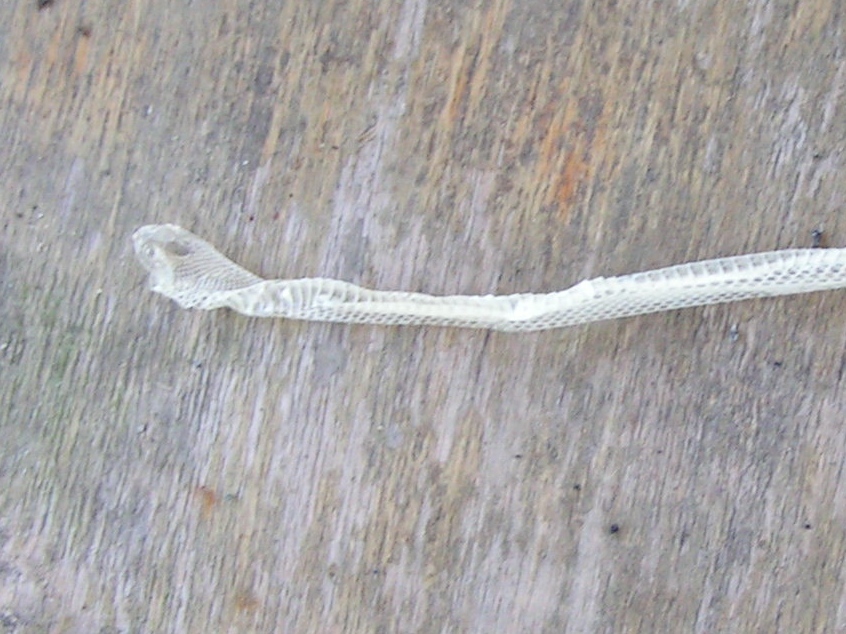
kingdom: Animalia
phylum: Chordata
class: Squamata
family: Colubridae
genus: Leptophis
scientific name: Leptophis diplotropis
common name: Pacific coast parrot snake
